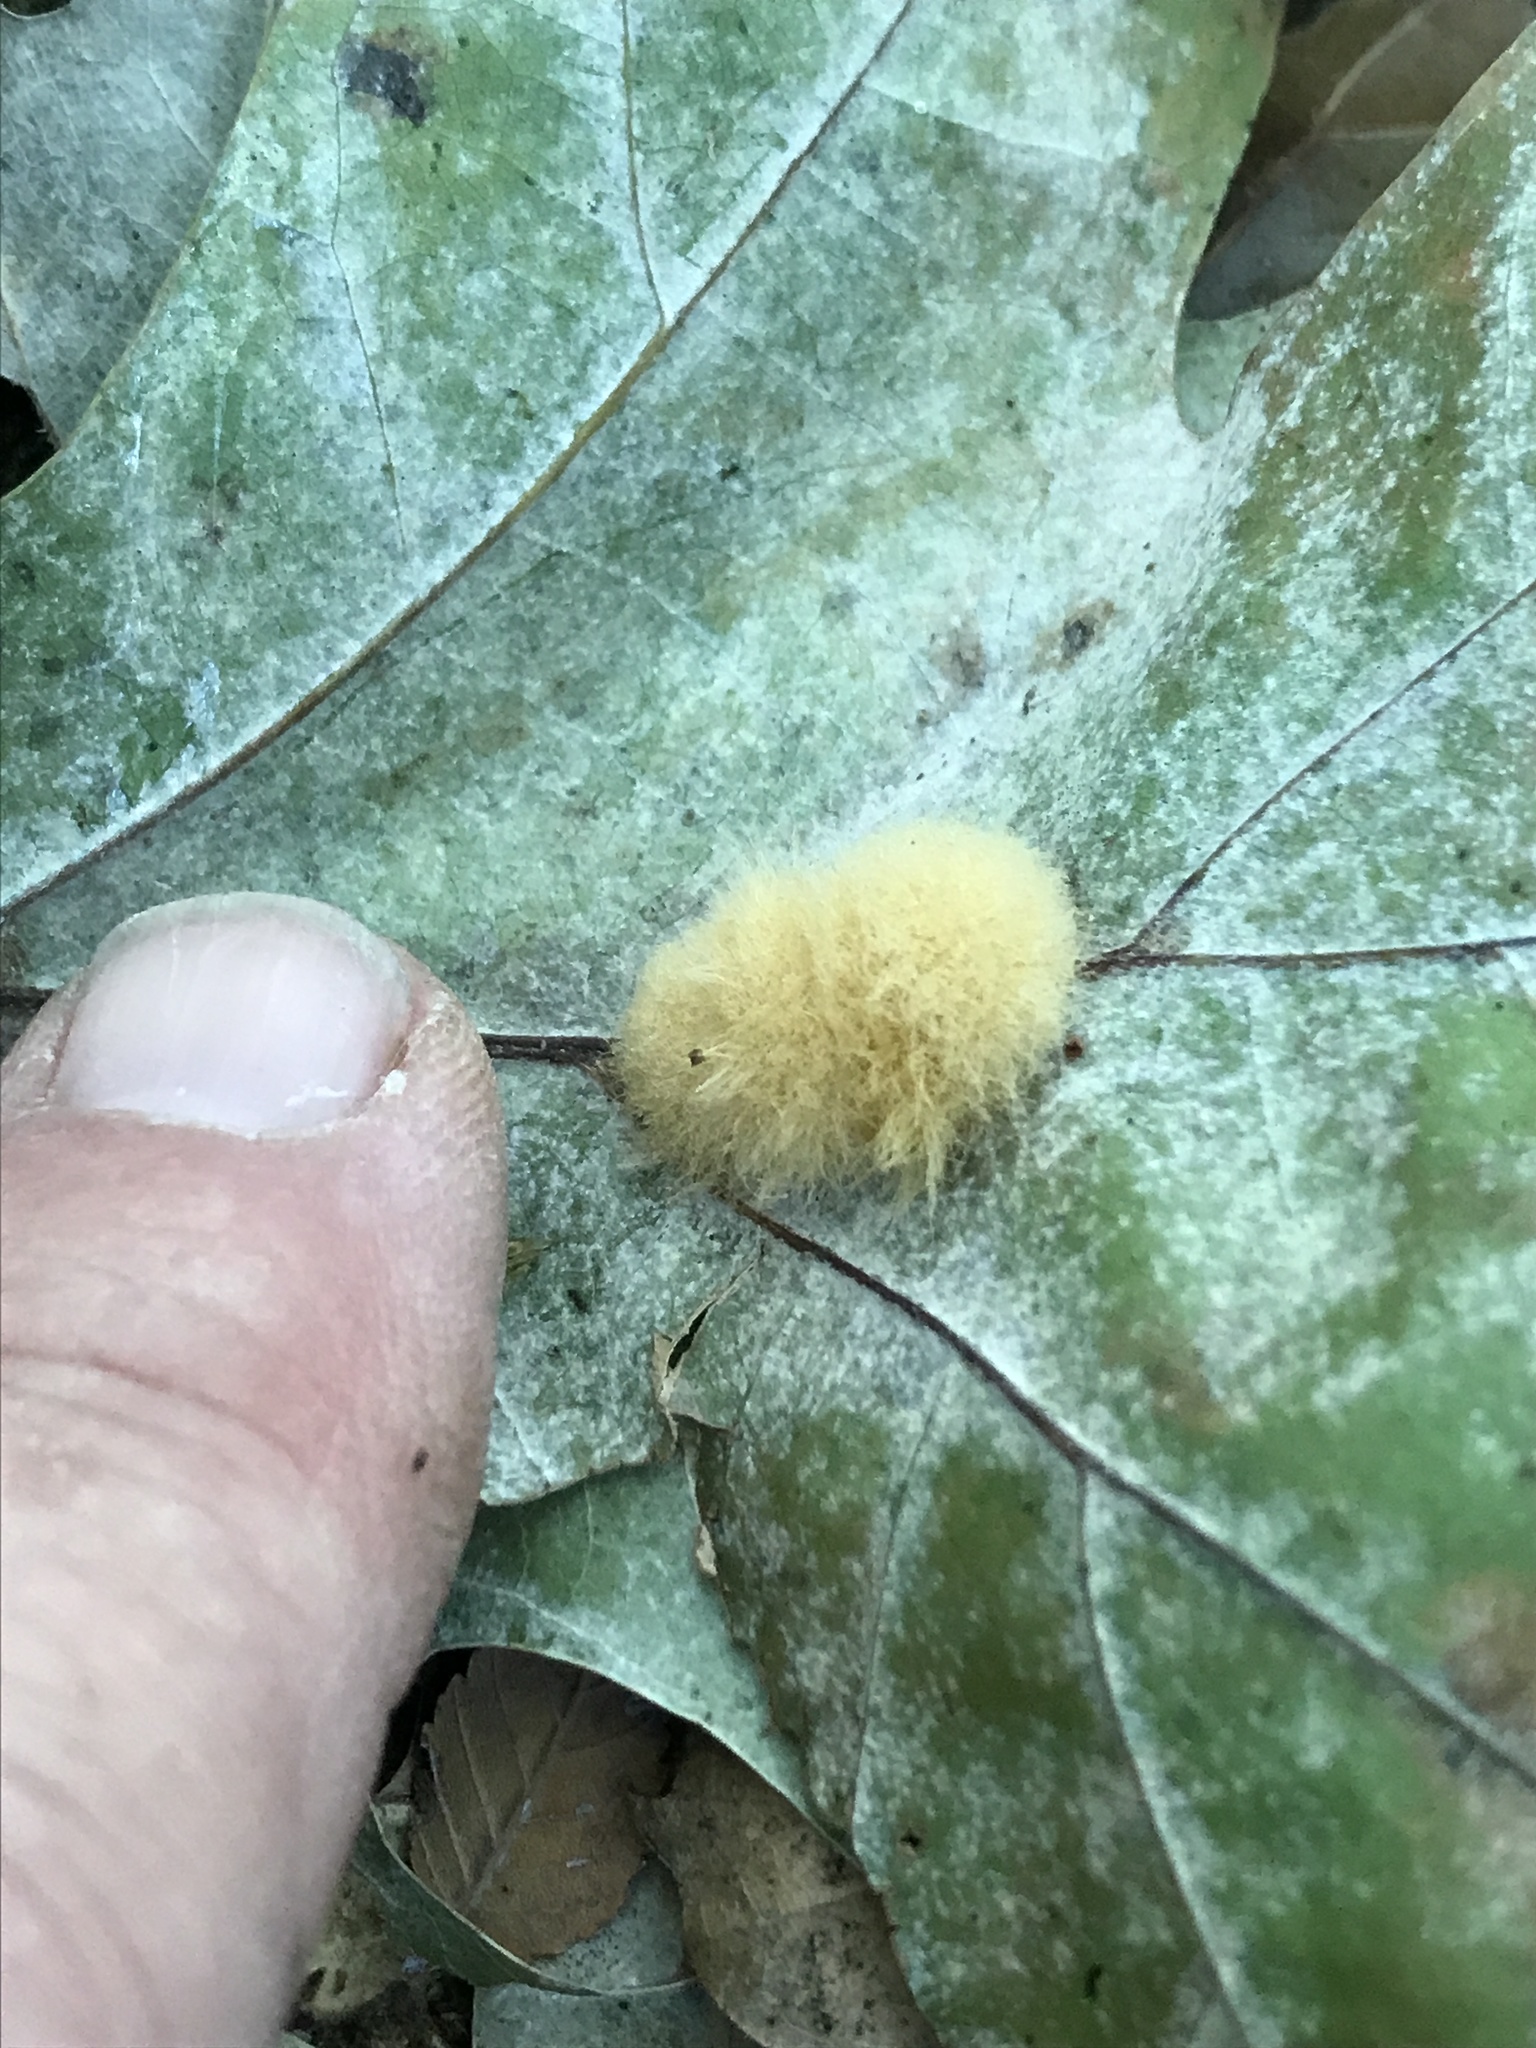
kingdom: Animalia
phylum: Arthropoda
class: Insecta
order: Hymenoptera
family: Cynipidae
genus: Callirhytis
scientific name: Callirhytis
